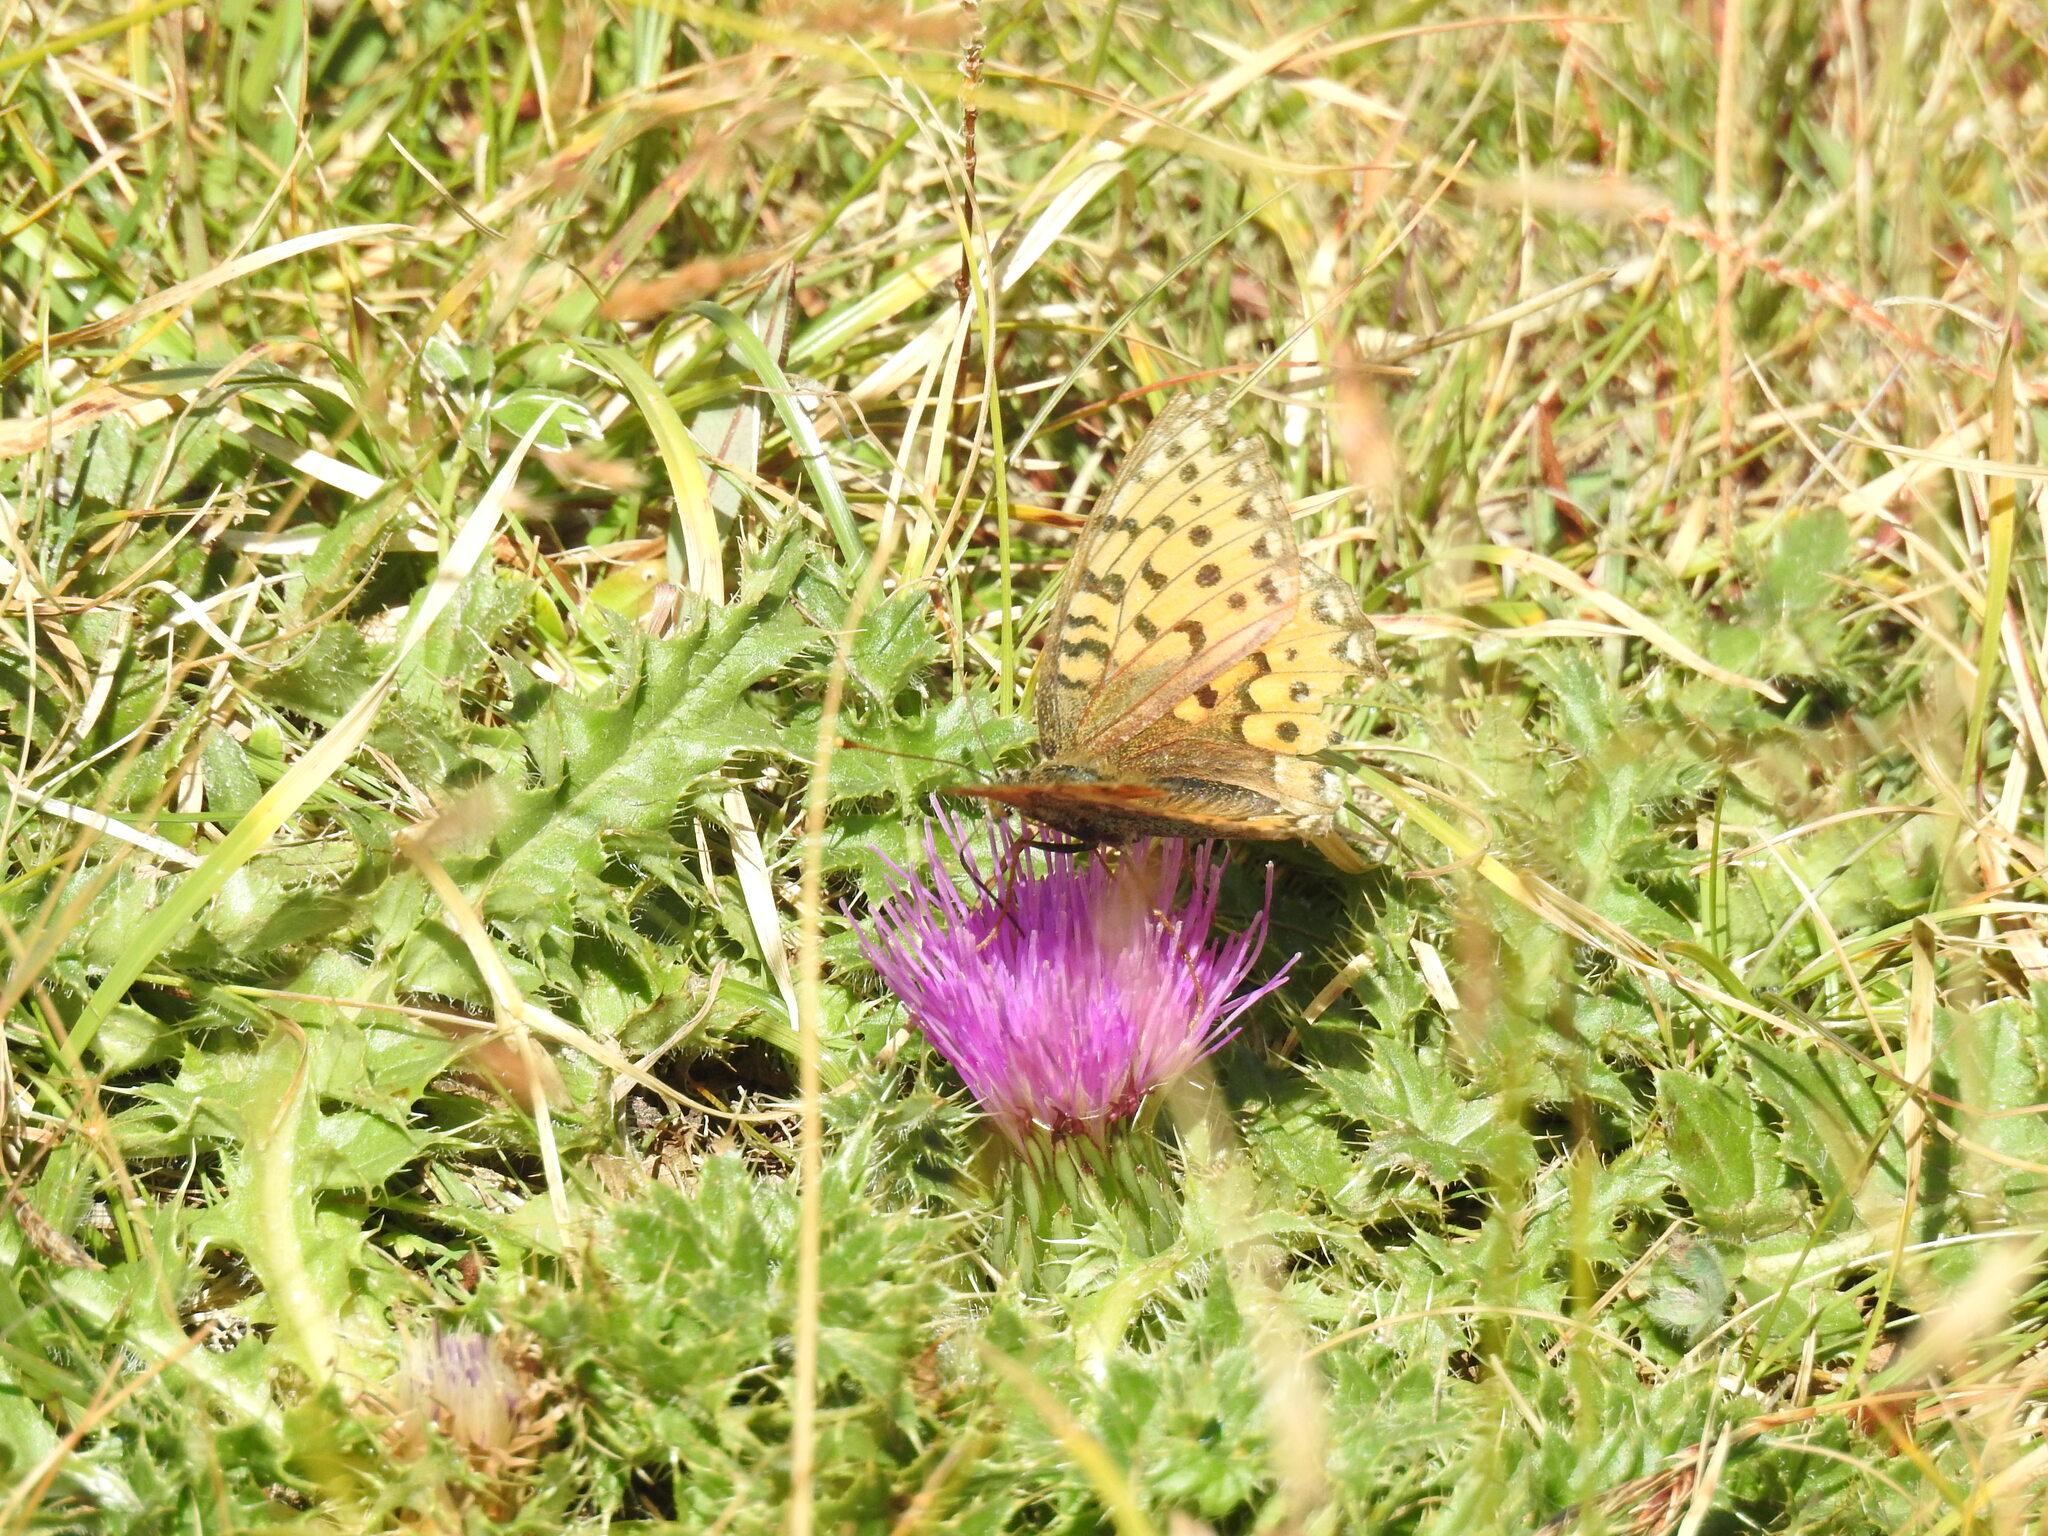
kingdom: Animalia
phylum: Arthropoda
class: Insecta
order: Lepidoptera
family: Nymphalidae
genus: Speyeria
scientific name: Speyeria aglaja
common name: Dark green fritillary
